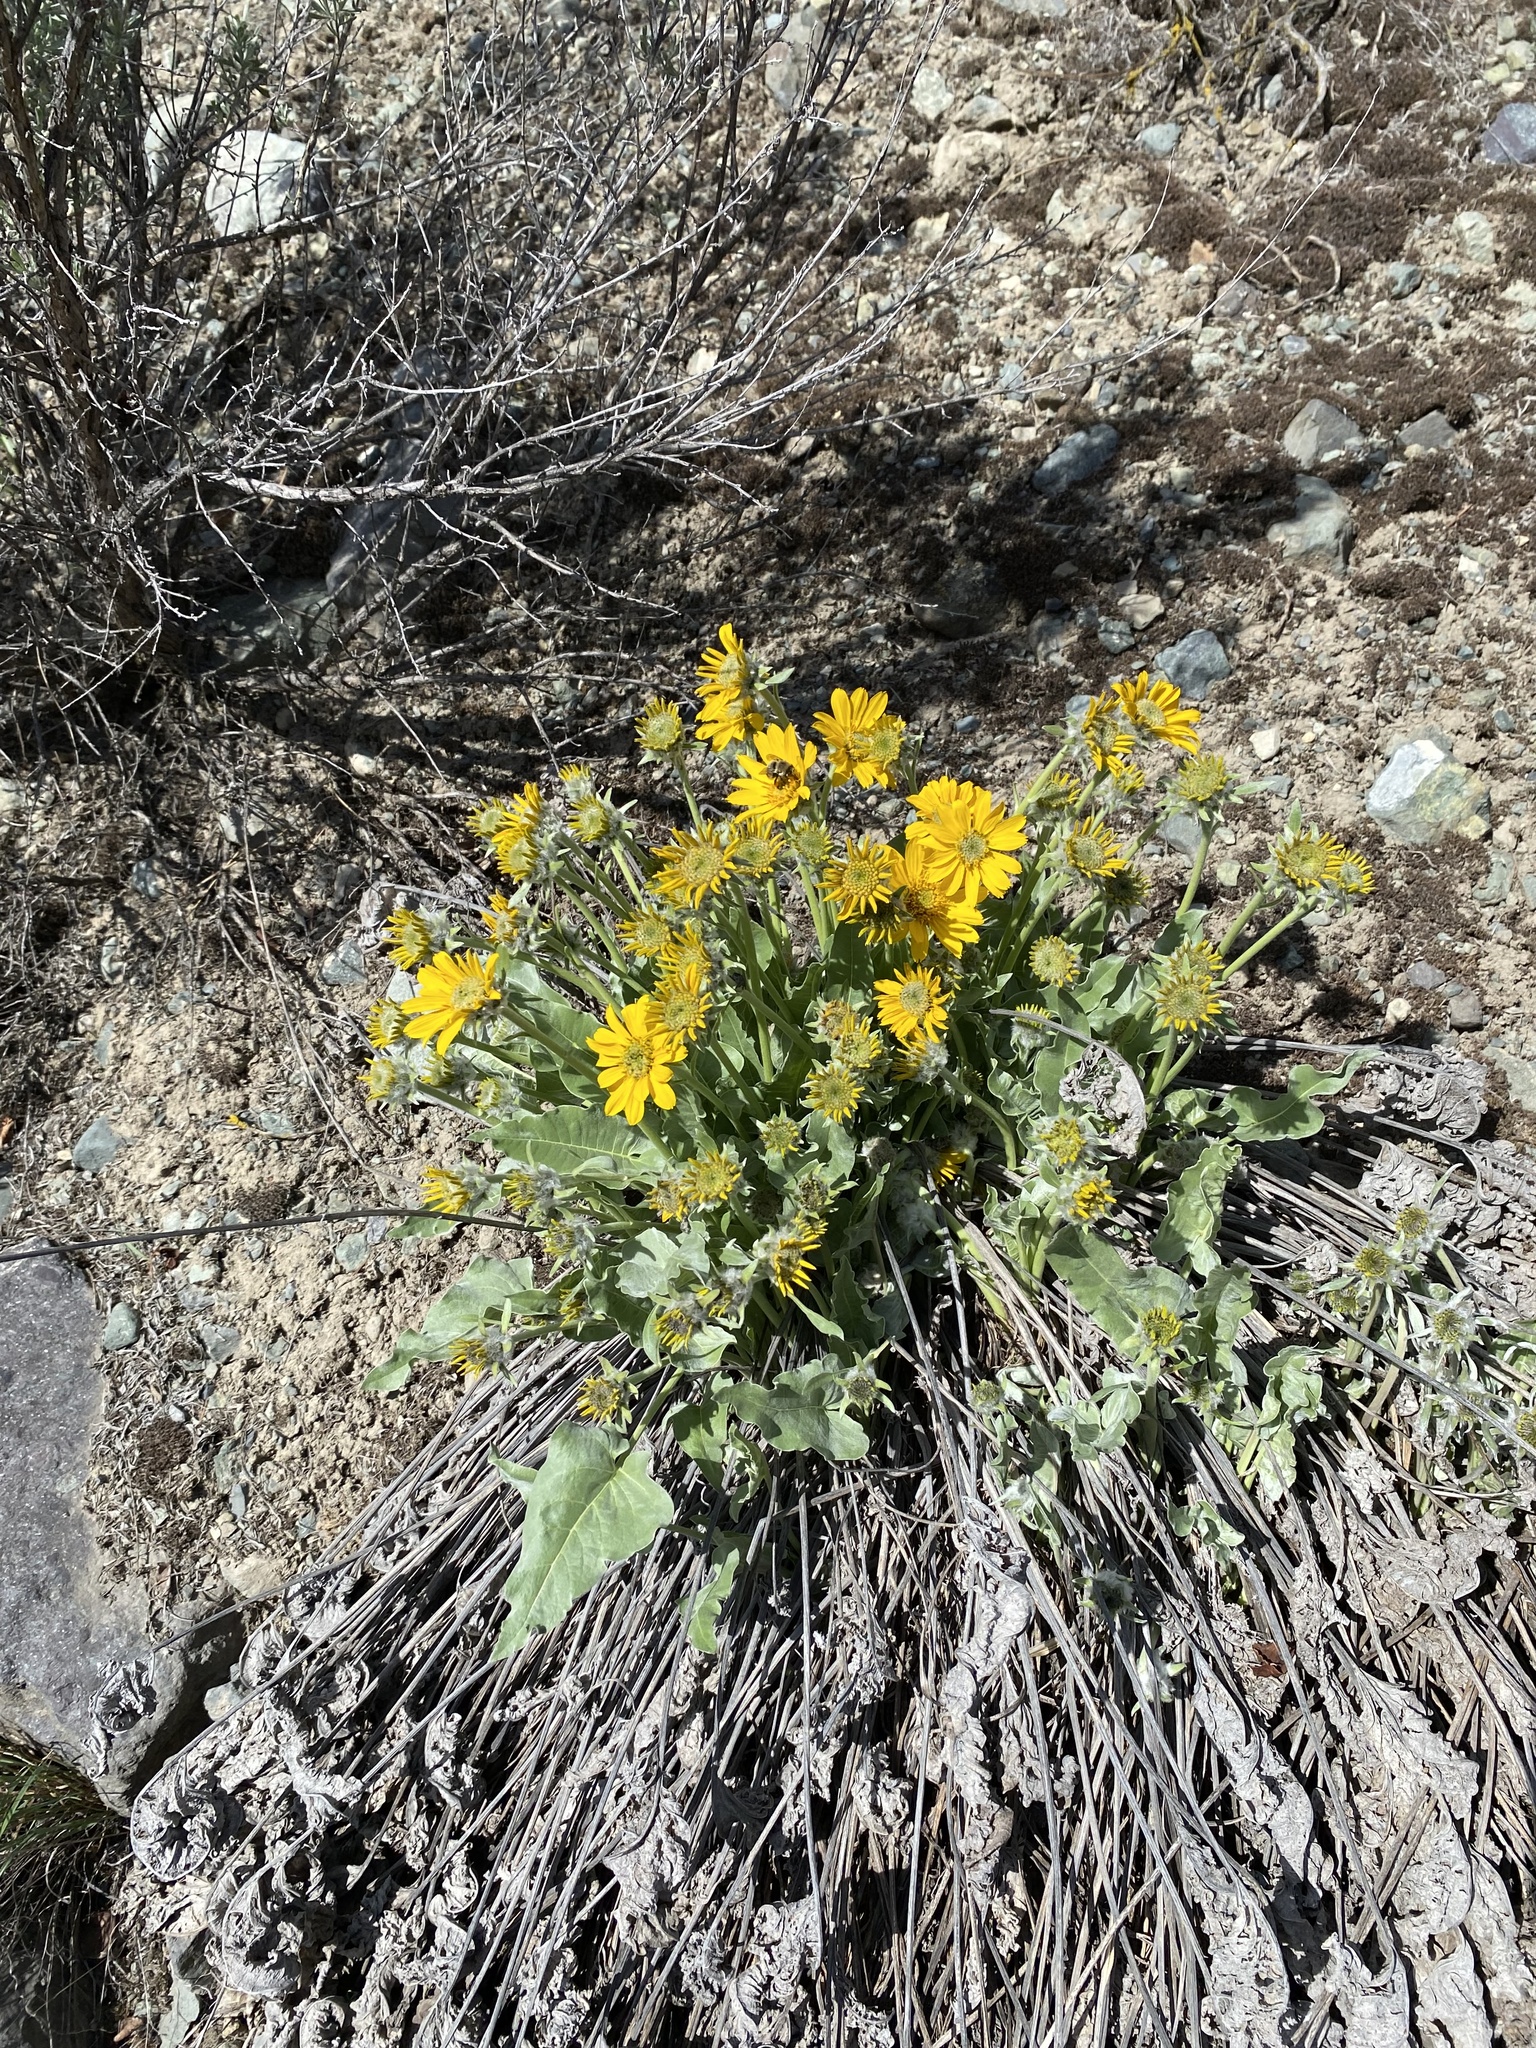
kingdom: Plantae
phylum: Tracheophyta
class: Magnoliopsida
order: Asterales
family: Asteraceae
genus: Wyethia
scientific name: Wyethia sagittata
